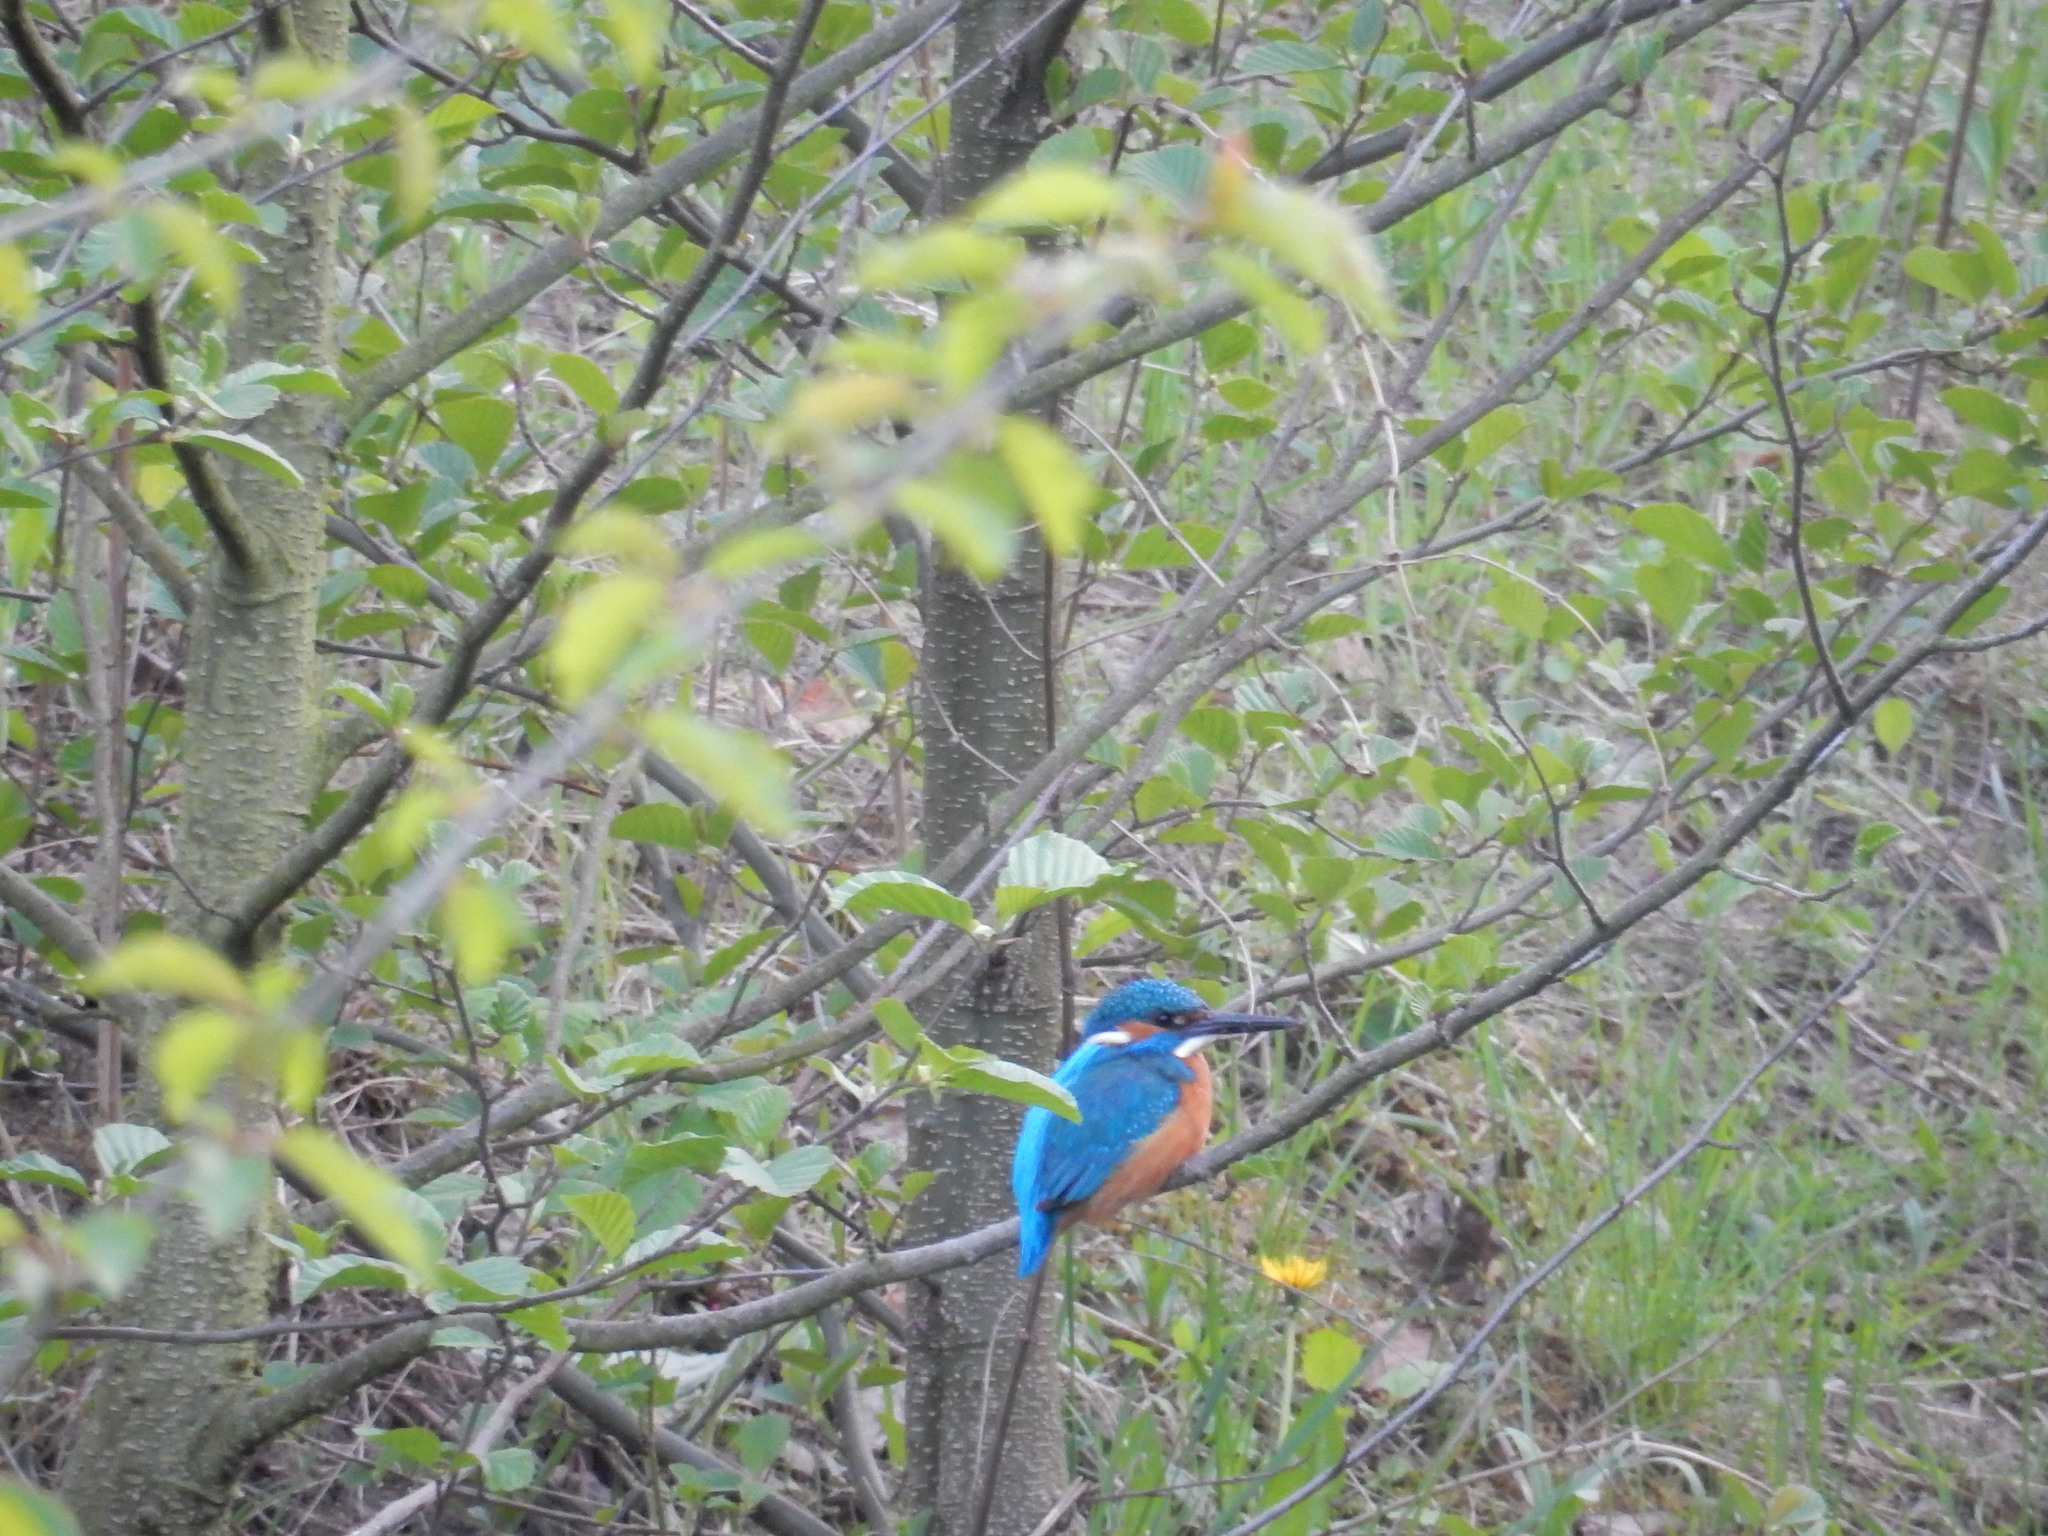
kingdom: Animalia
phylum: Chordata
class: Aves
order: Coraciiformes
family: Alcedinidae
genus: Alcedo
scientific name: Alcedo atthis
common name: Common kingfisher
